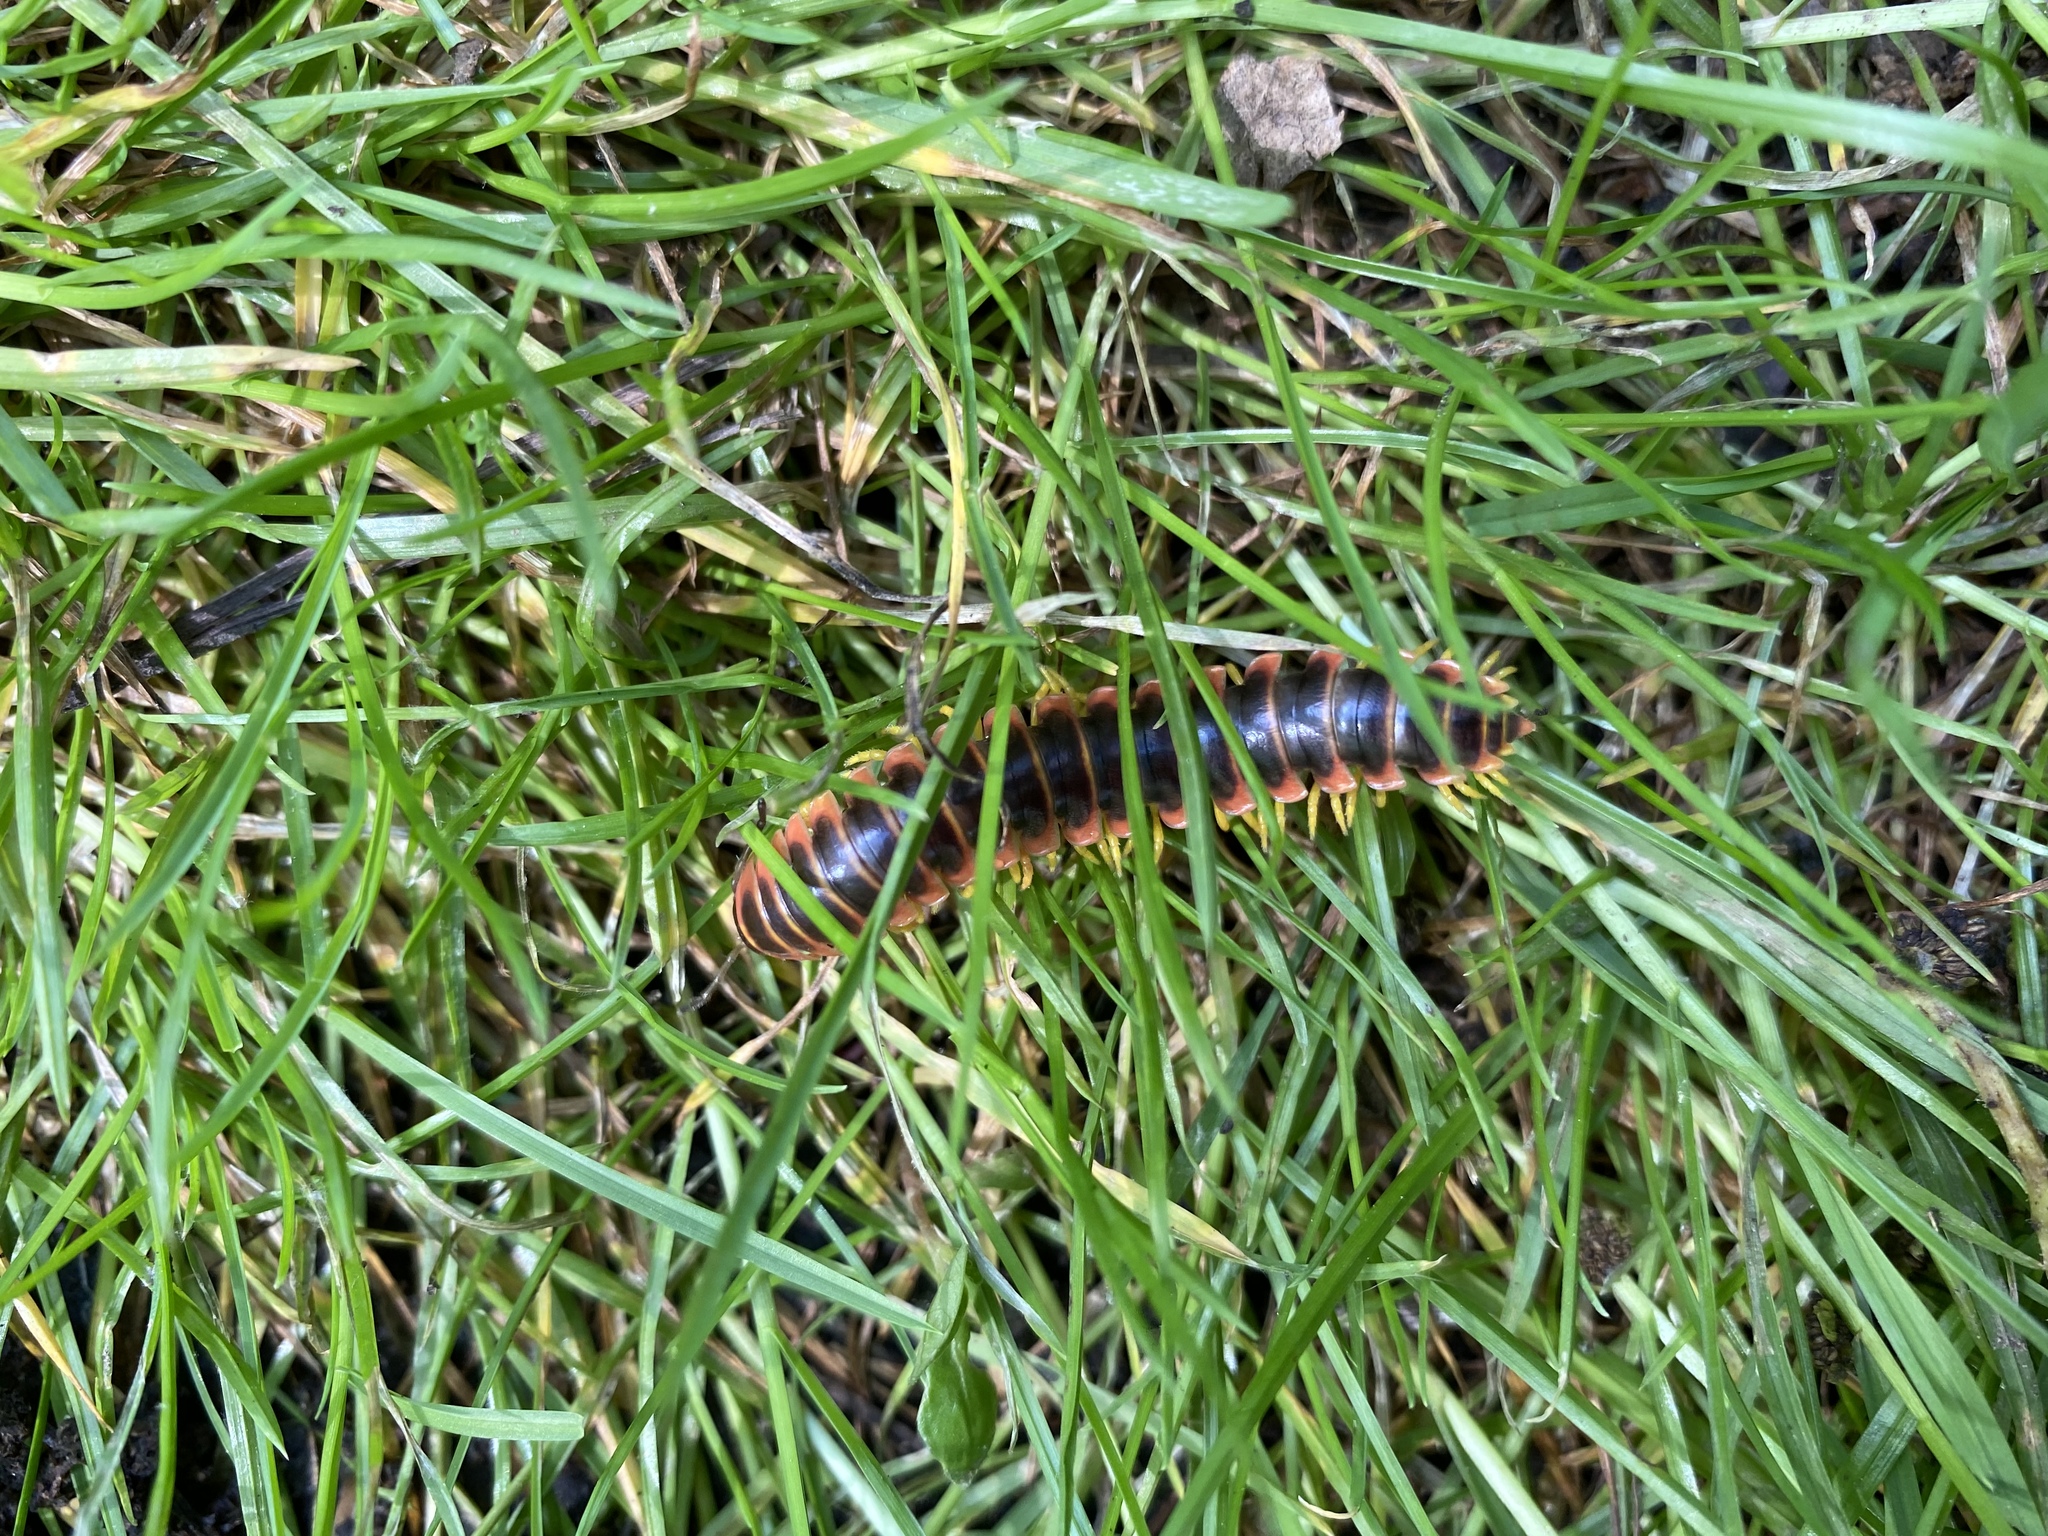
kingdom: Animalia
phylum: Arthropoda
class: Diplopoda
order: Polydesmida
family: Xystodesmidae
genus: Apheloria
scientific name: Apheloria virginiensis
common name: Black-and-gold flat millipede
